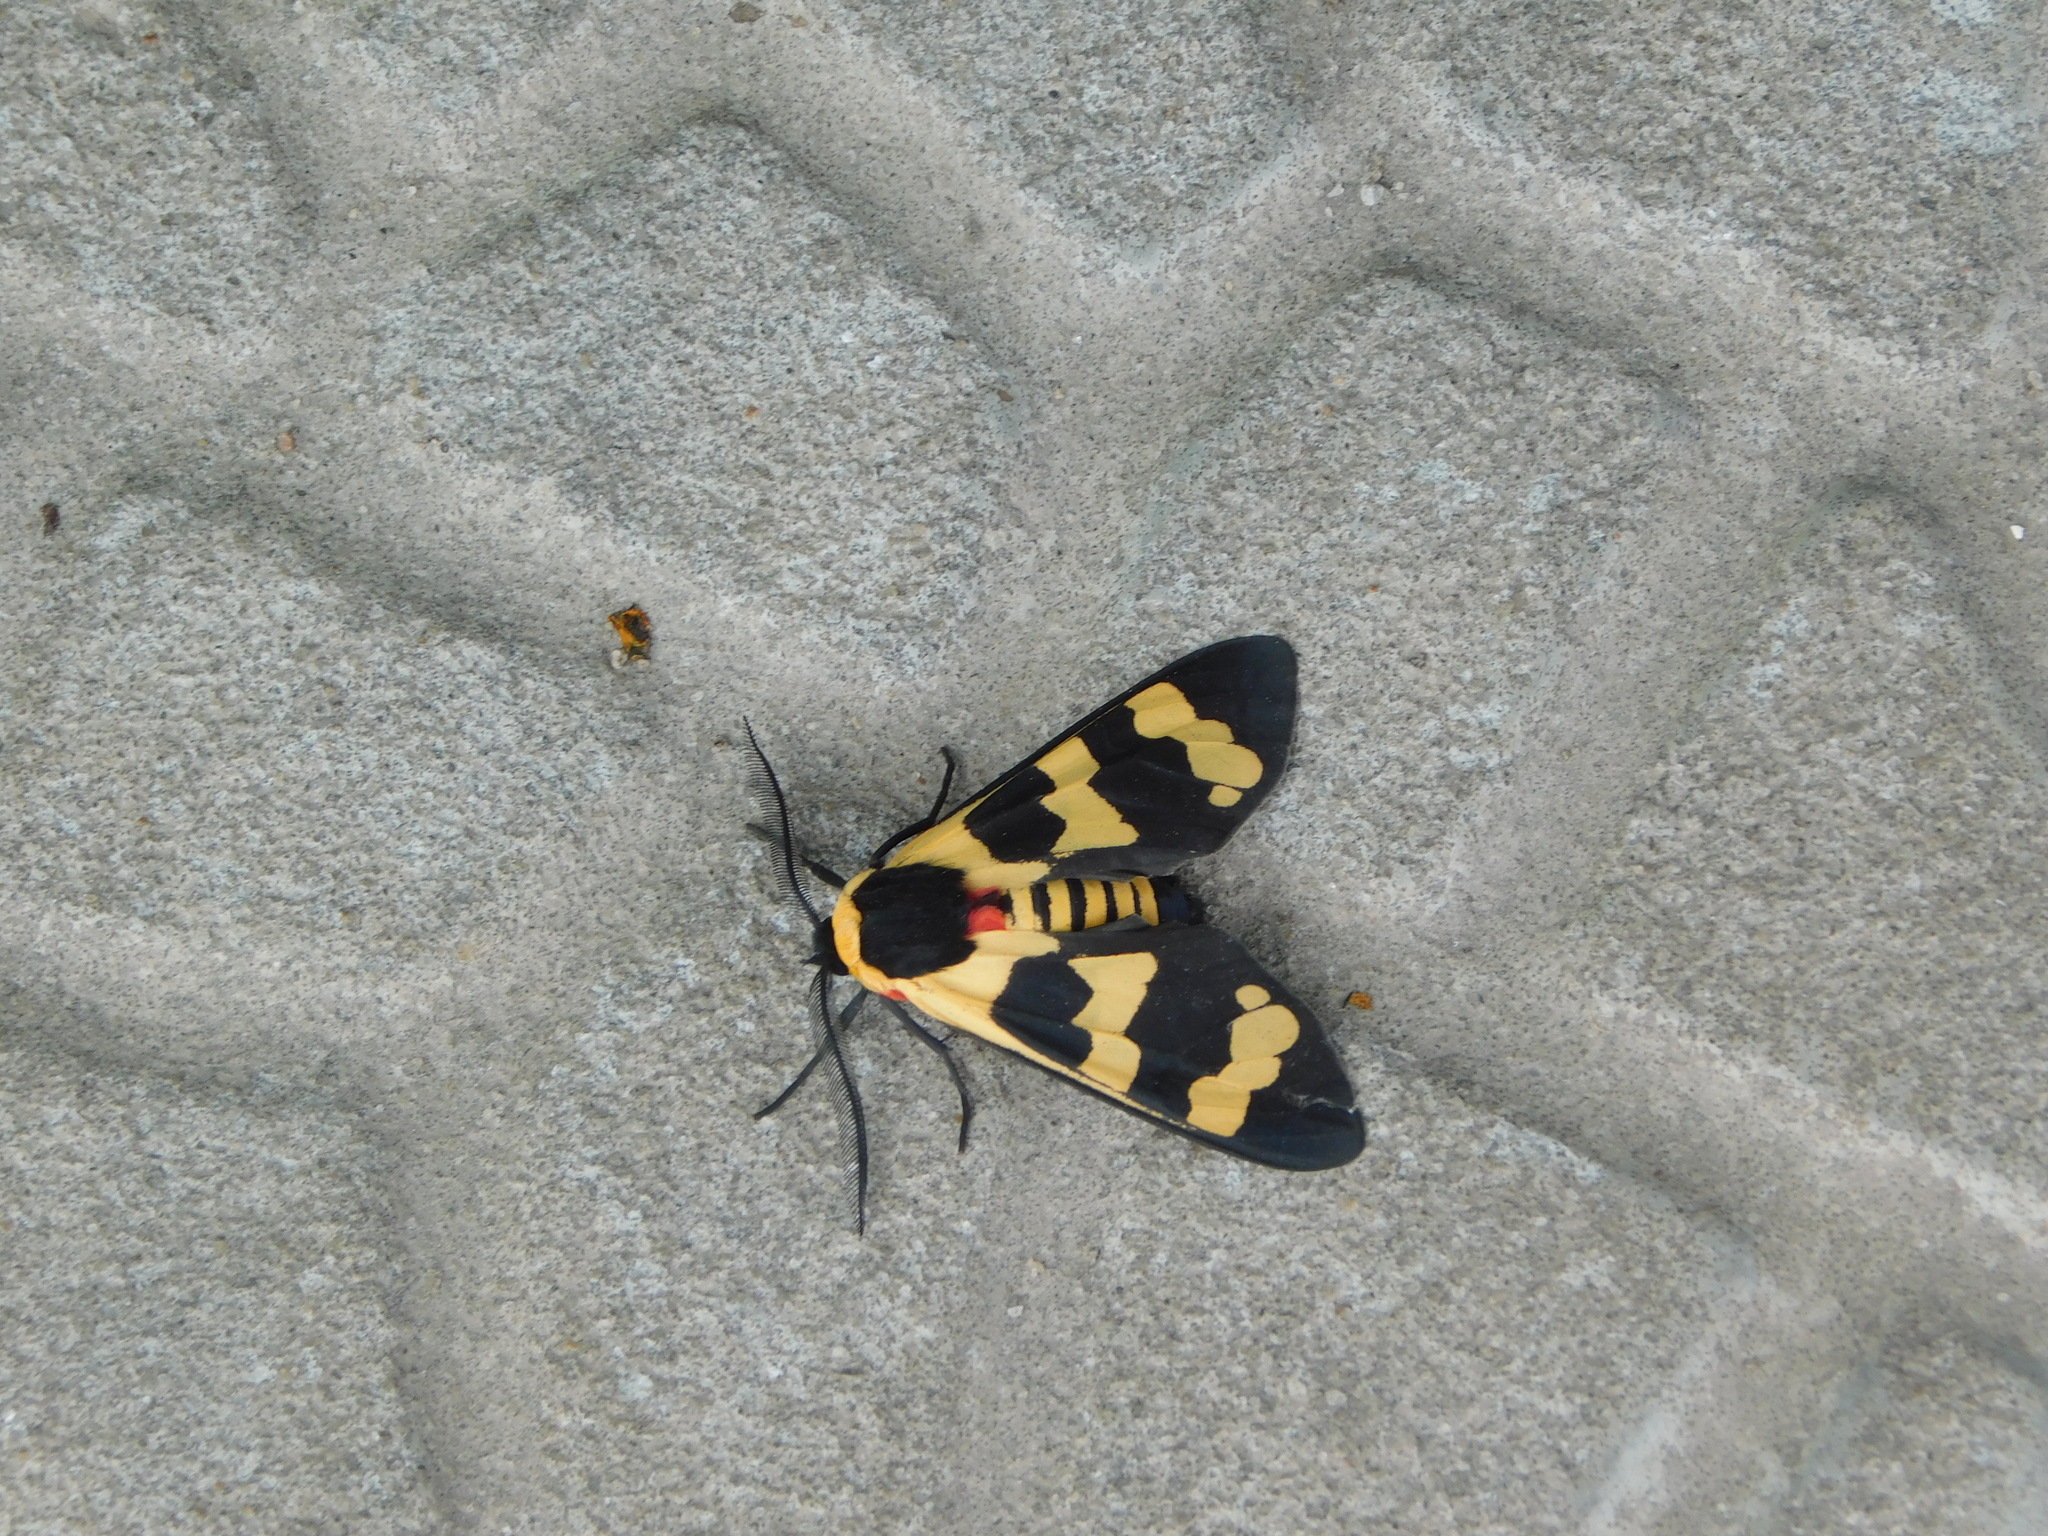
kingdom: Animalia
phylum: Arthropoda
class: Insecta
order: Lepidoptera
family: Erebidae
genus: Eurata
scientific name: Eurata hilaris
